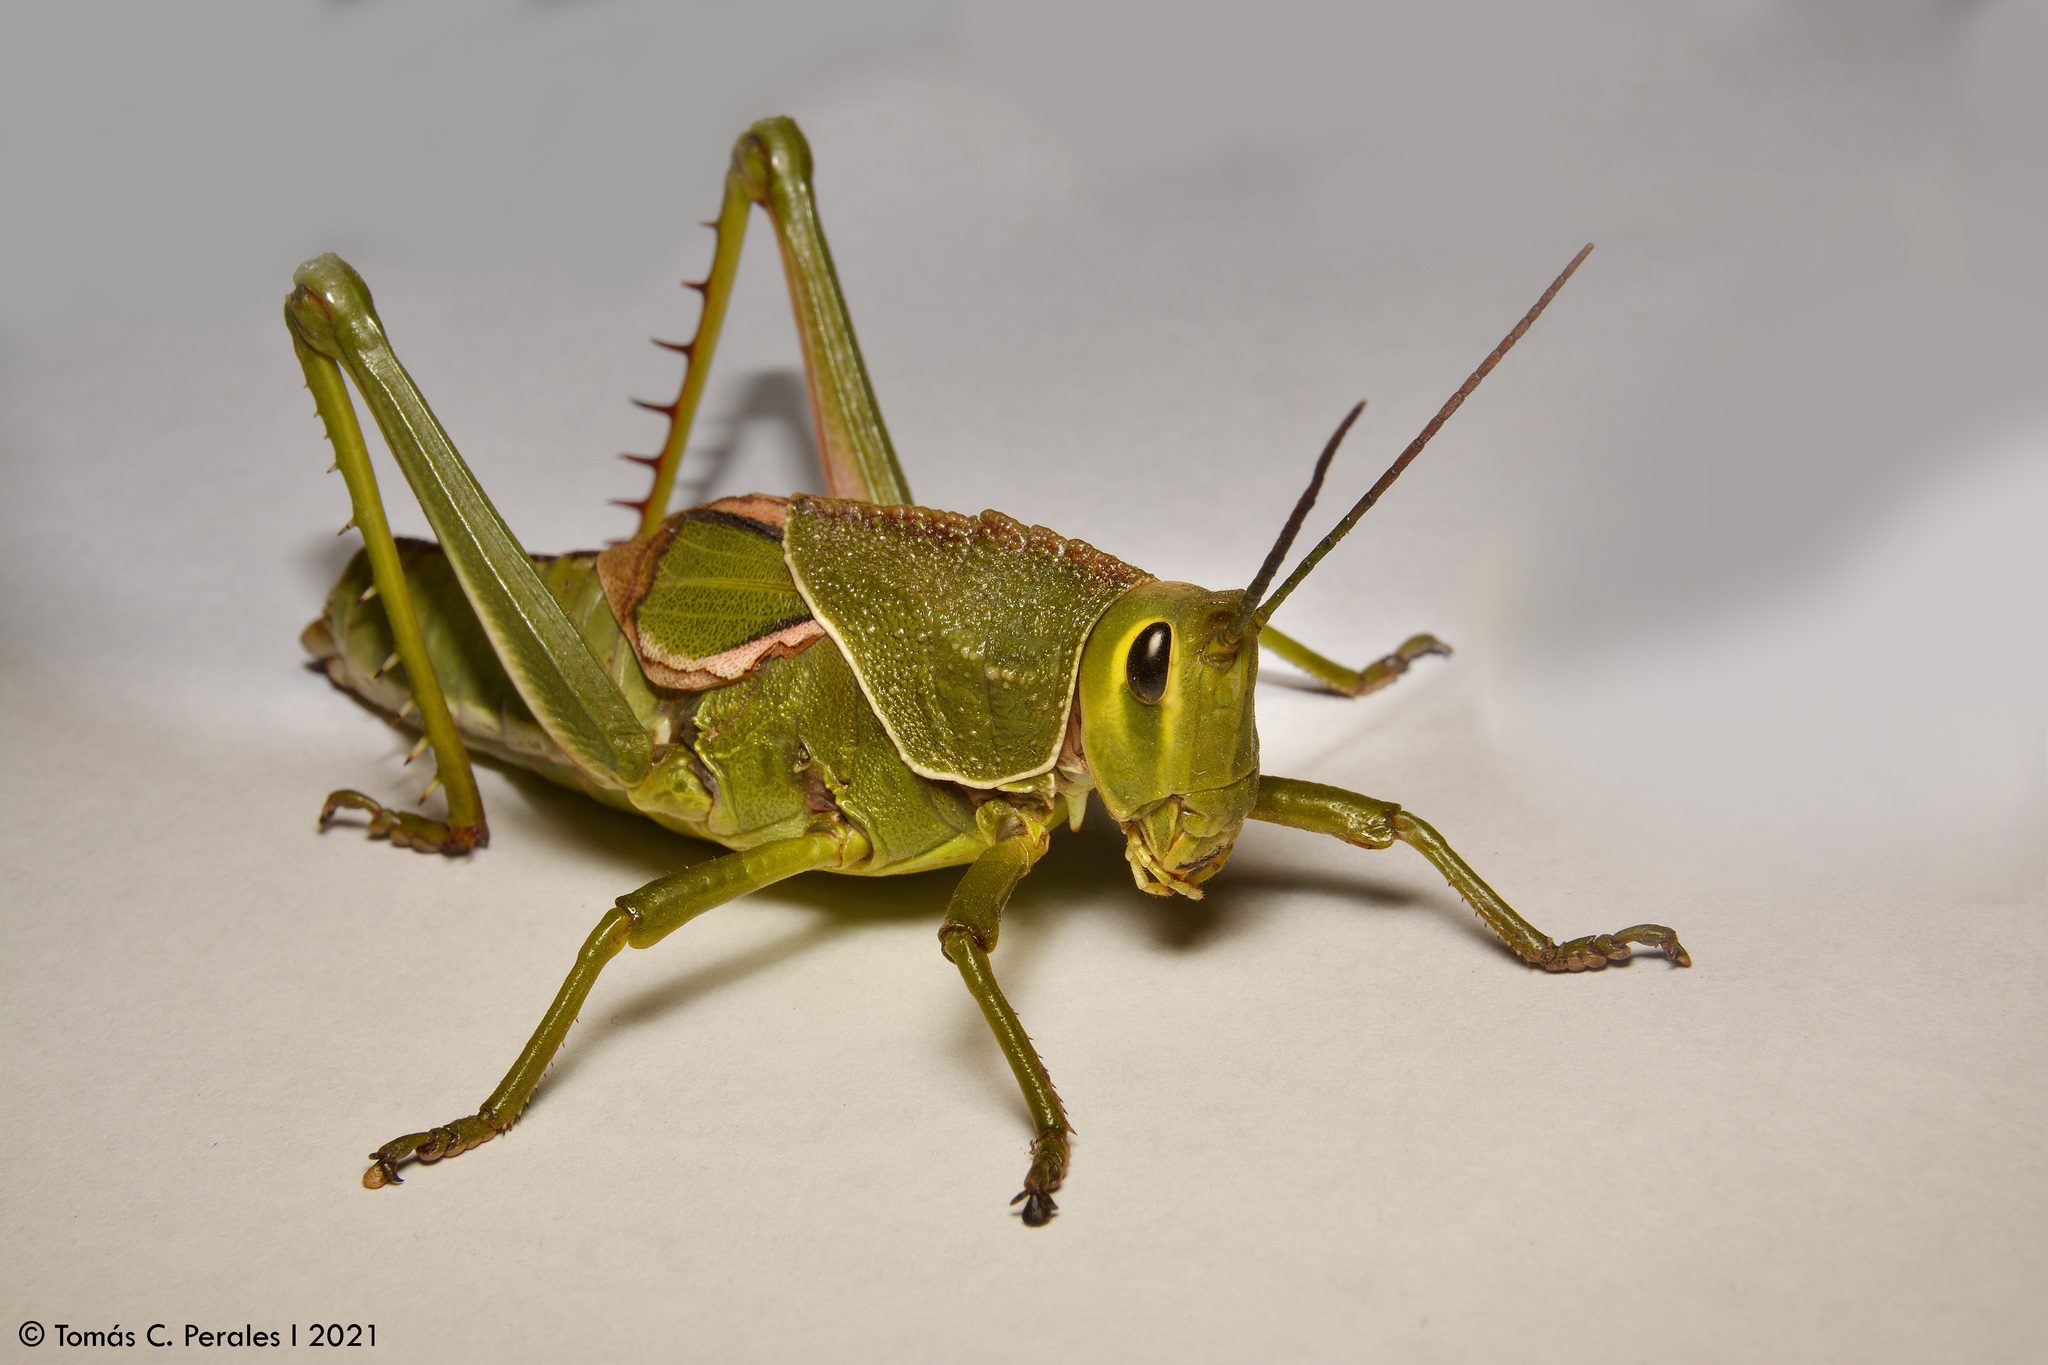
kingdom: Animalia
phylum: Arthropoda
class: Insecta
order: Orthoptera
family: Romaleidae
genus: Staleochlora
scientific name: Staleochlora viridicata
